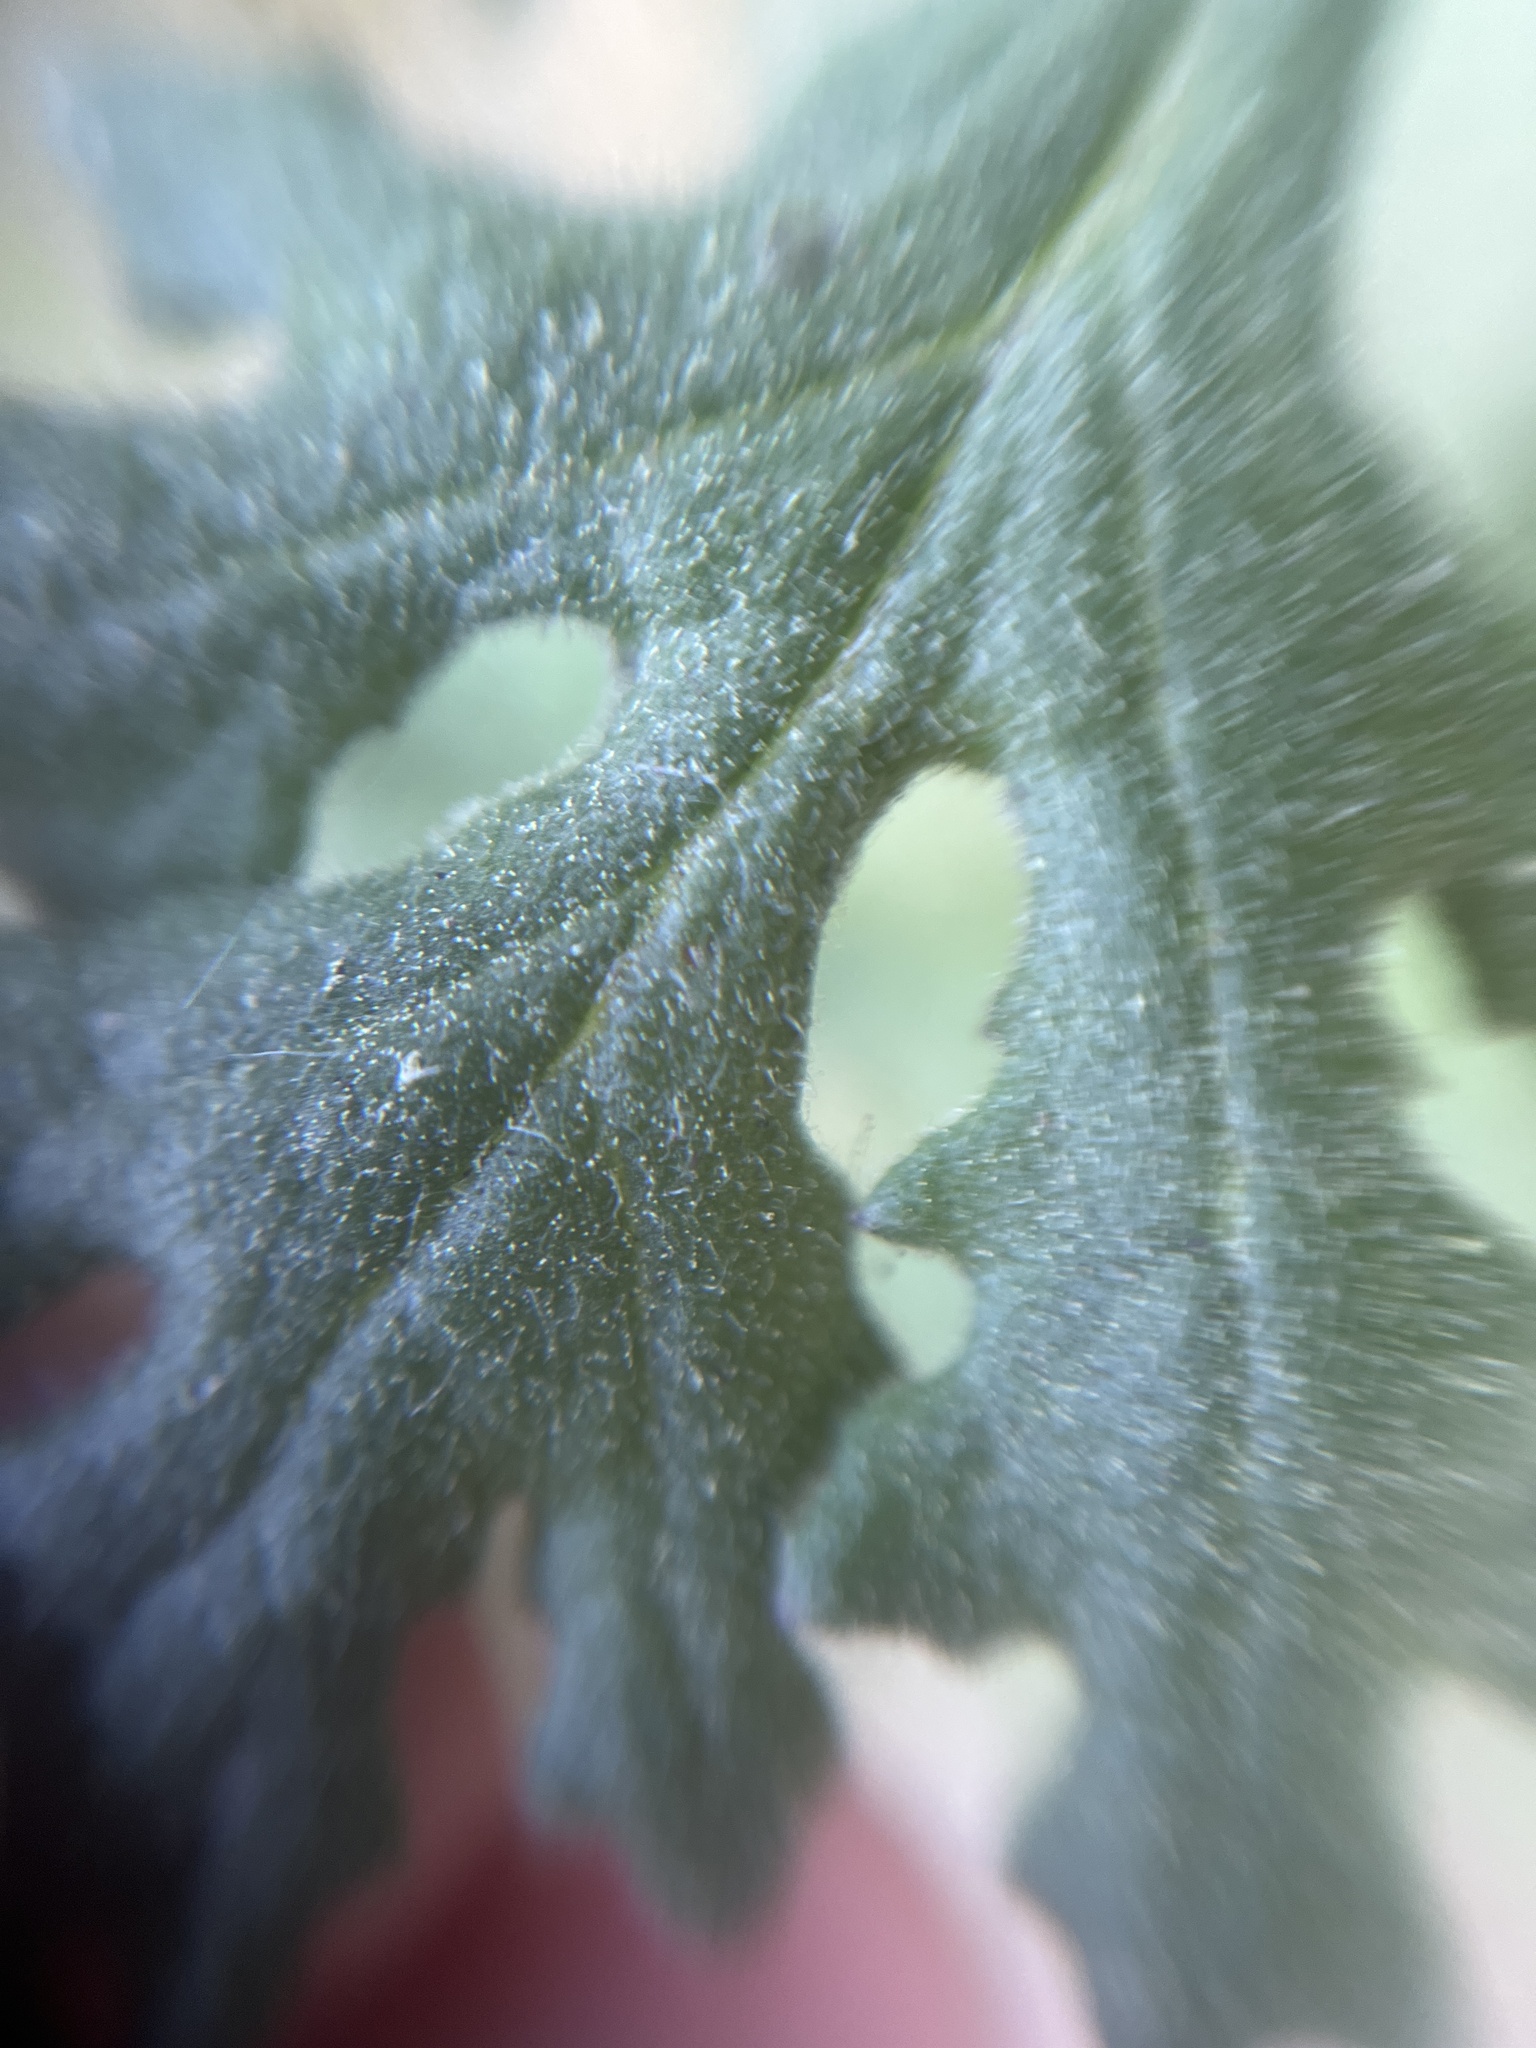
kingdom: Plantae
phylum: Tracheophyta
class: Magnoliopsida
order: Asterales
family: Asteraceae
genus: Senecio
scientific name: Senecio sylvaticus
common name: Woodland ragwort
